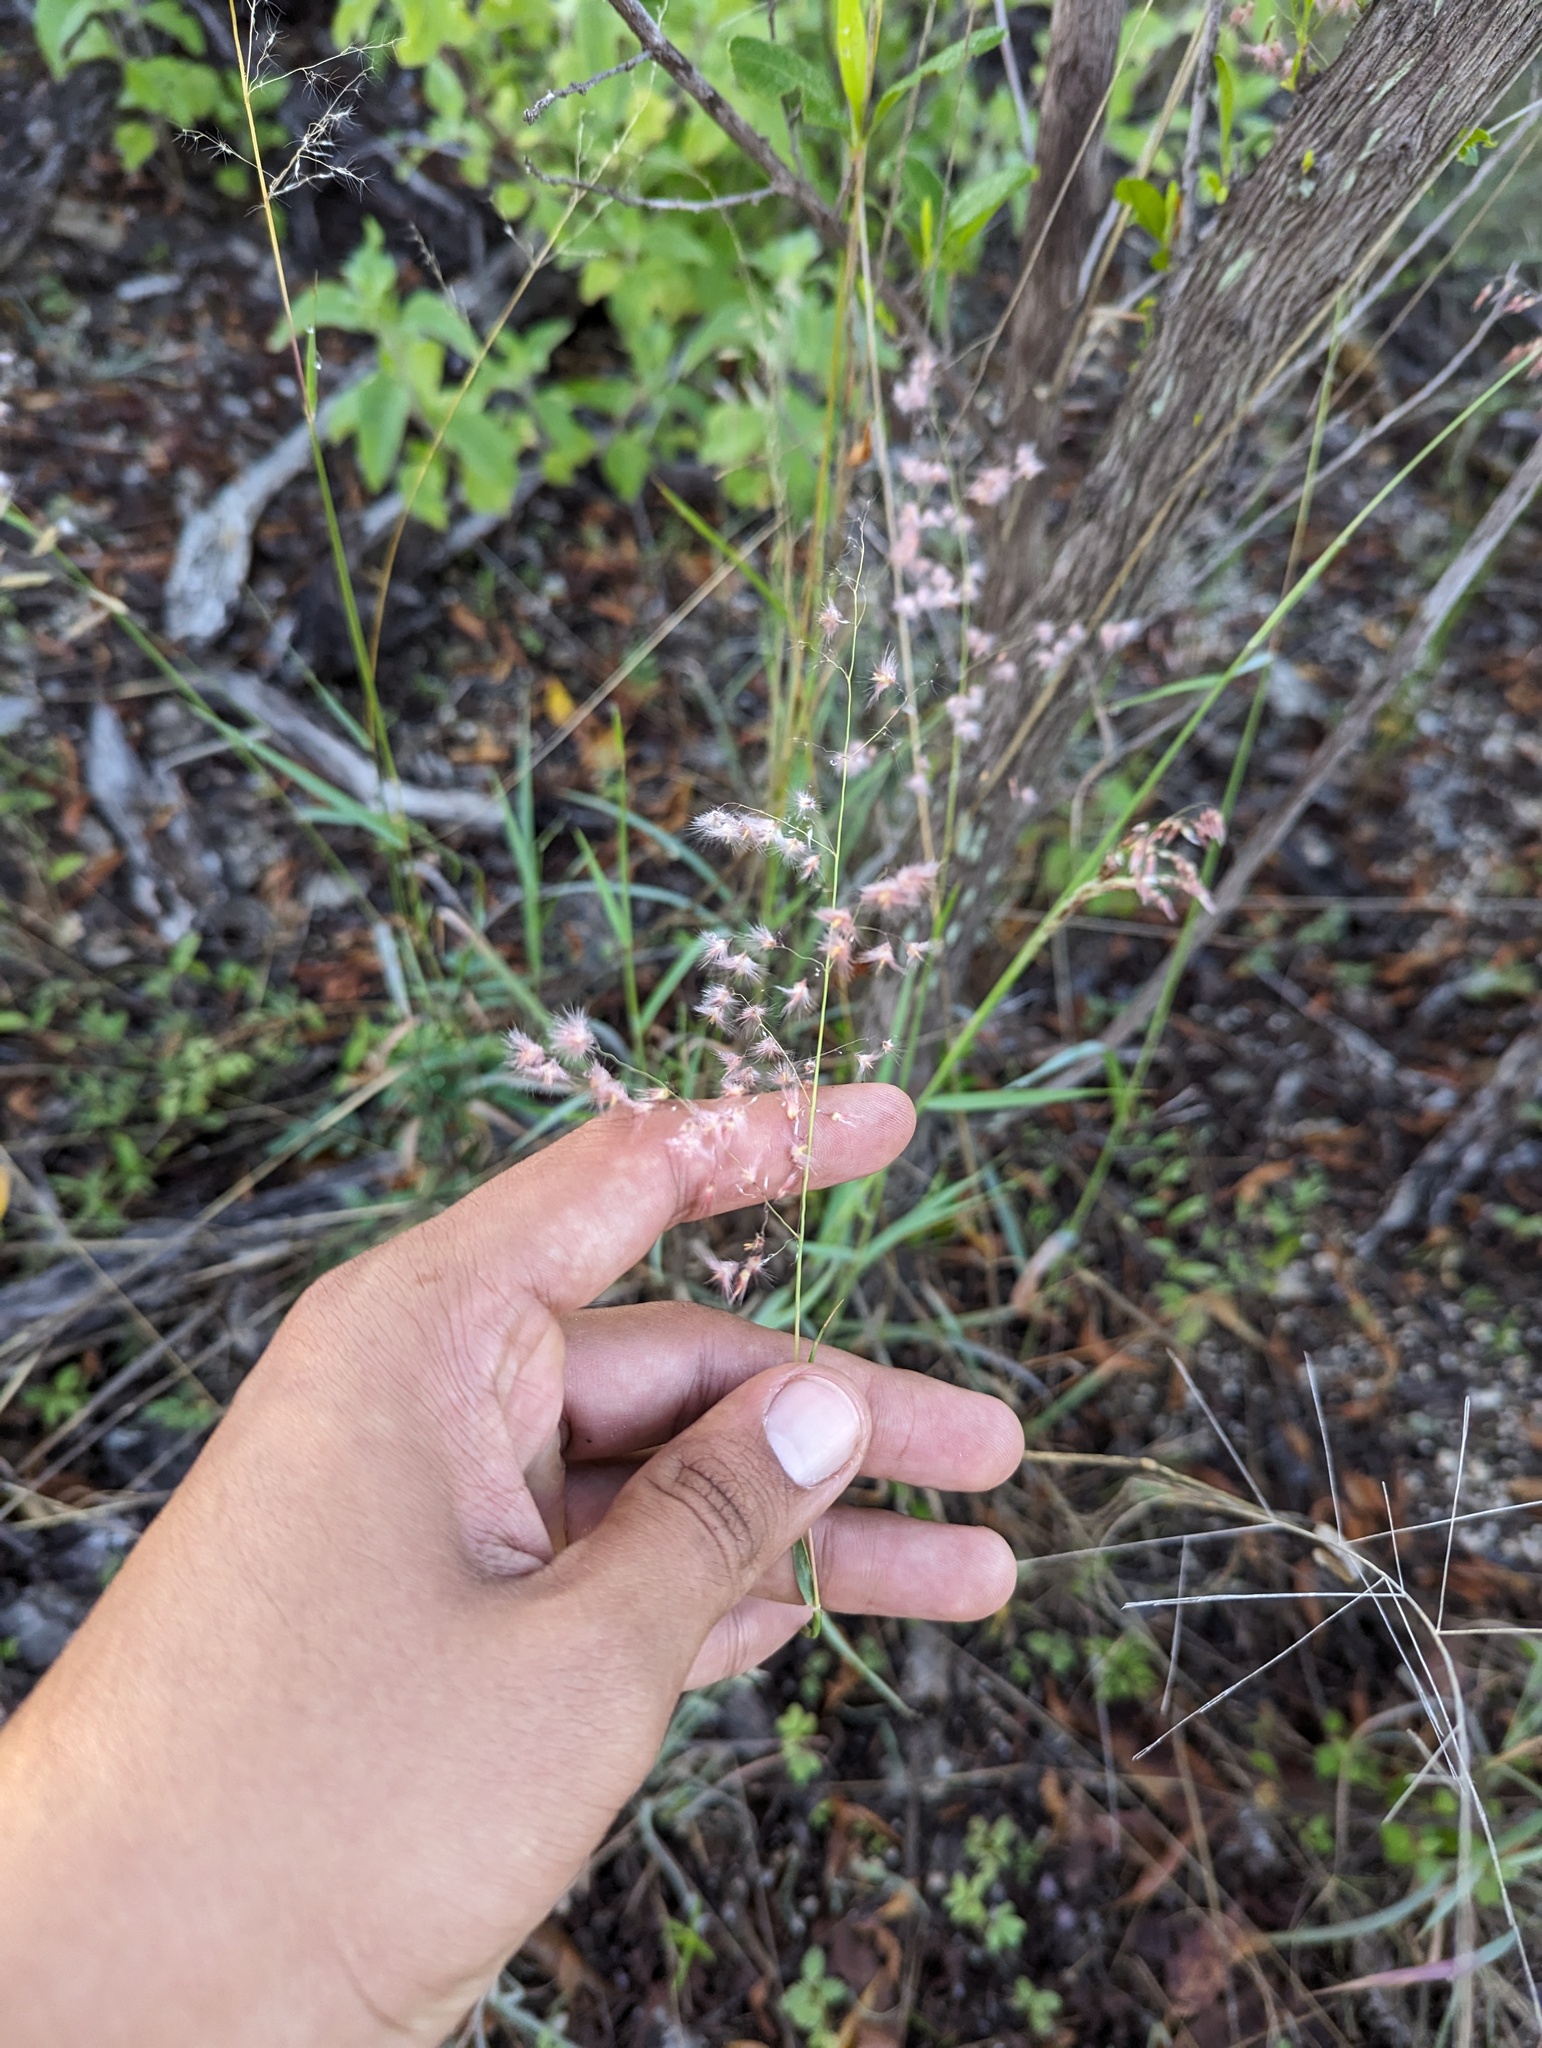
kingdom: Plantae
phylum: Tracheophyta
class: Liliopsida
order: Poales
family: Poaceae
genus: Melinis
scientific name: Melinis repens
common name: Rose natal grass
